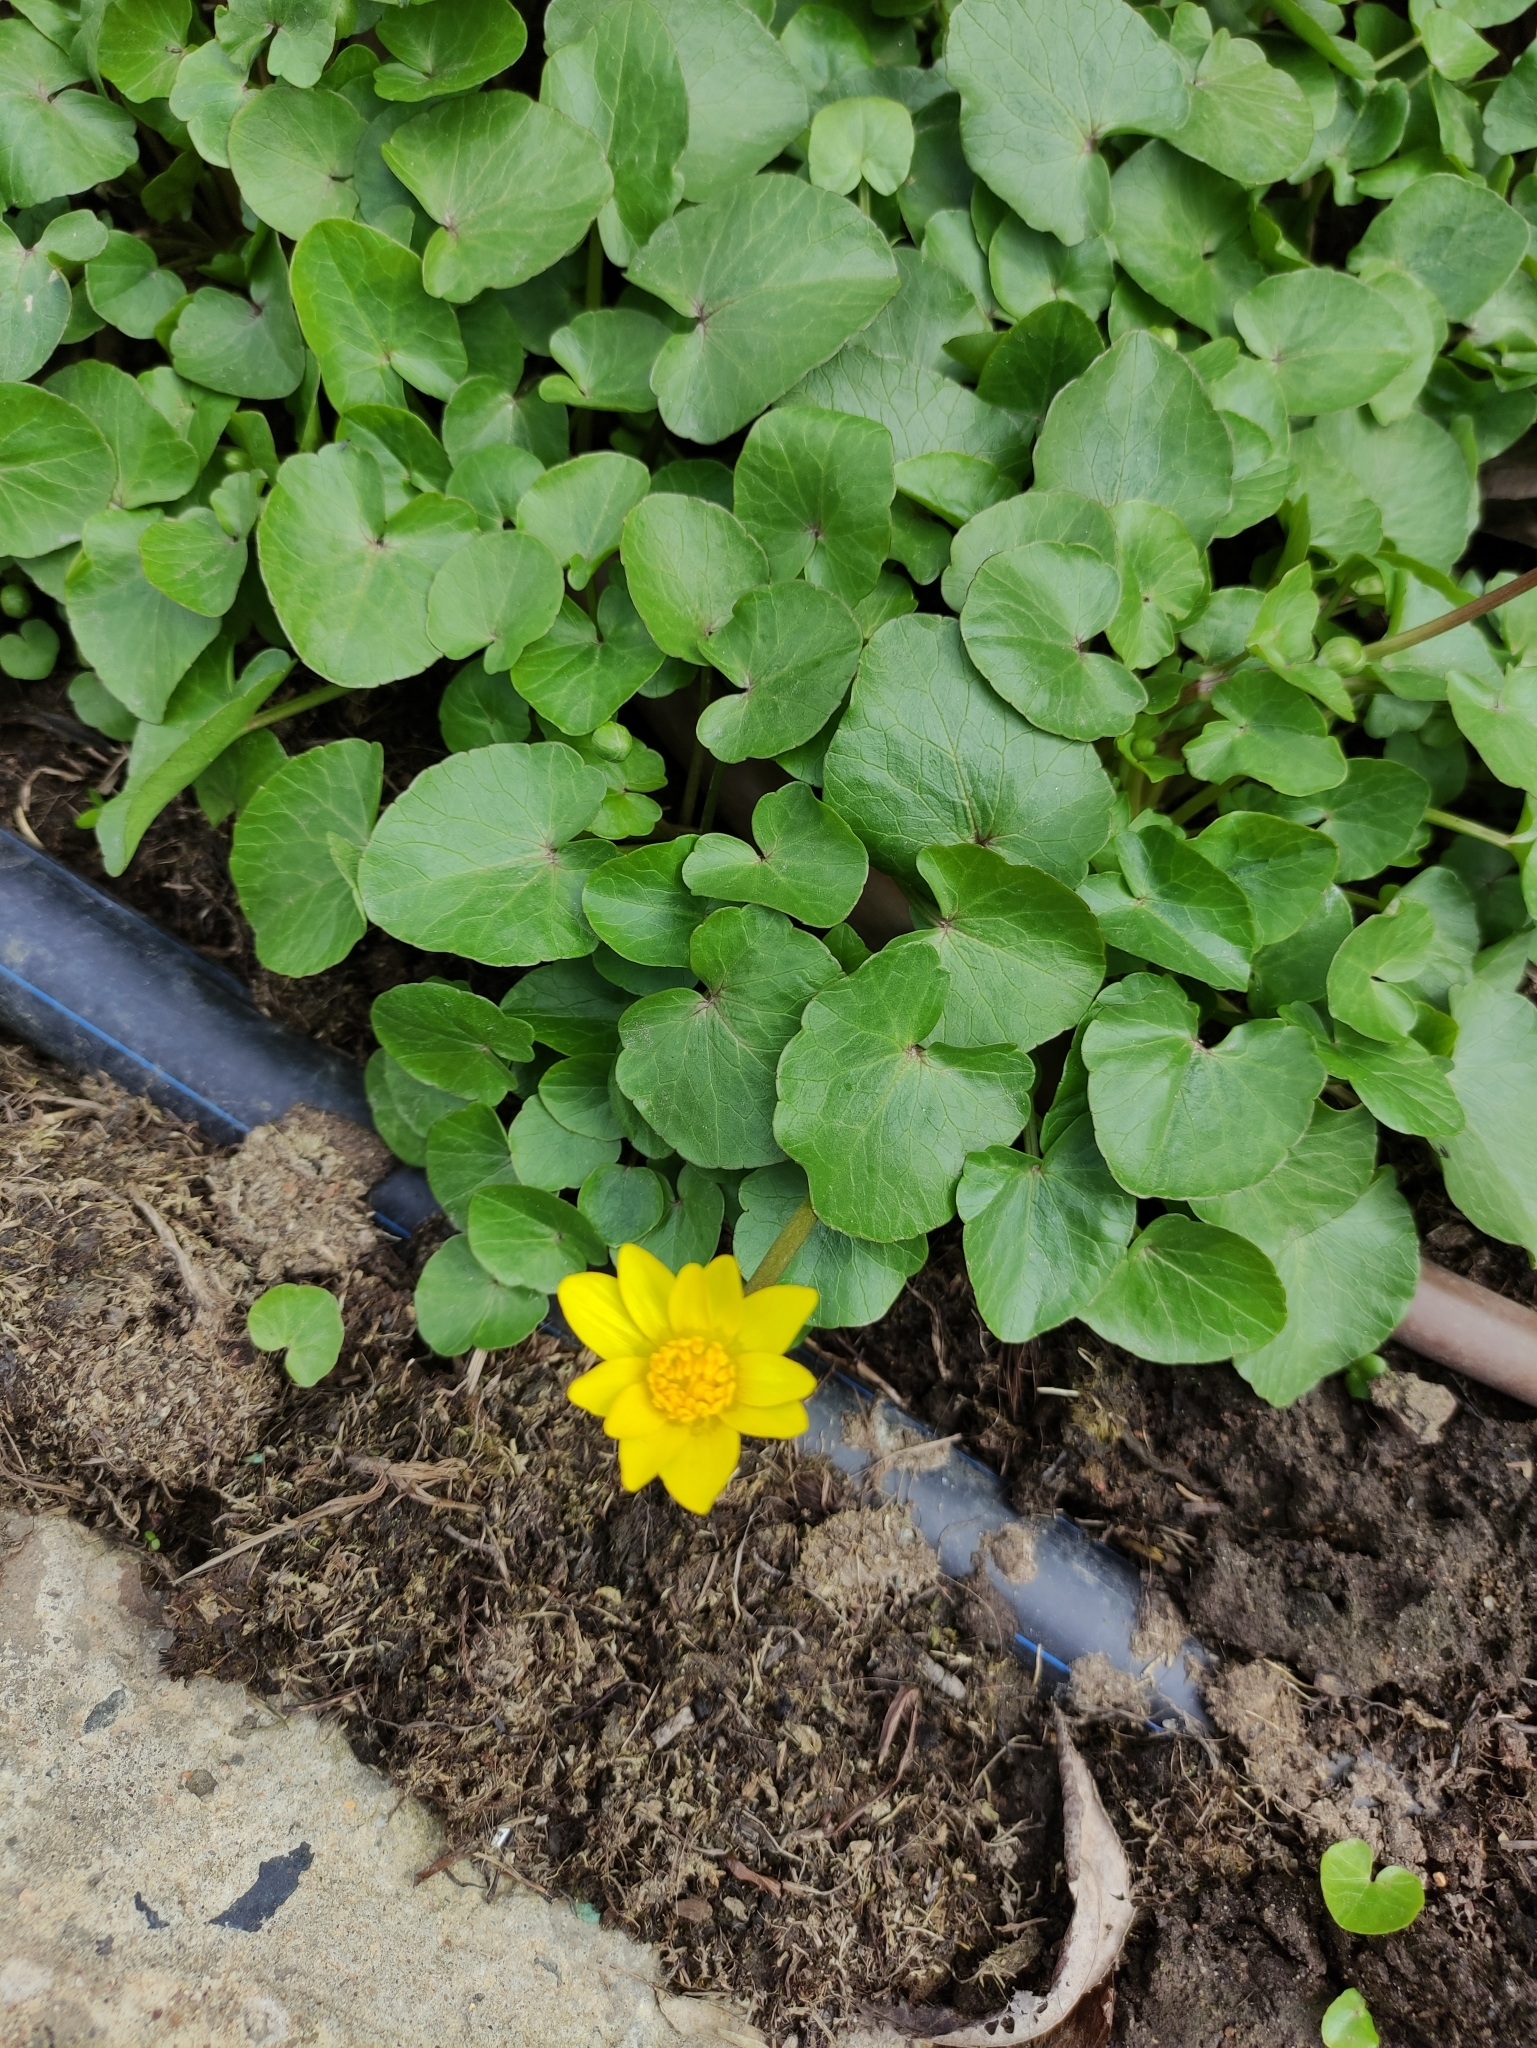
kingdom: Plantae
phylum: Tracheophyta
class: Magnoliopsida
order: Ranunculales
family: Ranunculaceae
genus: Ficaria
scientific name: Ficaria verna
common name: Lesser celandine
